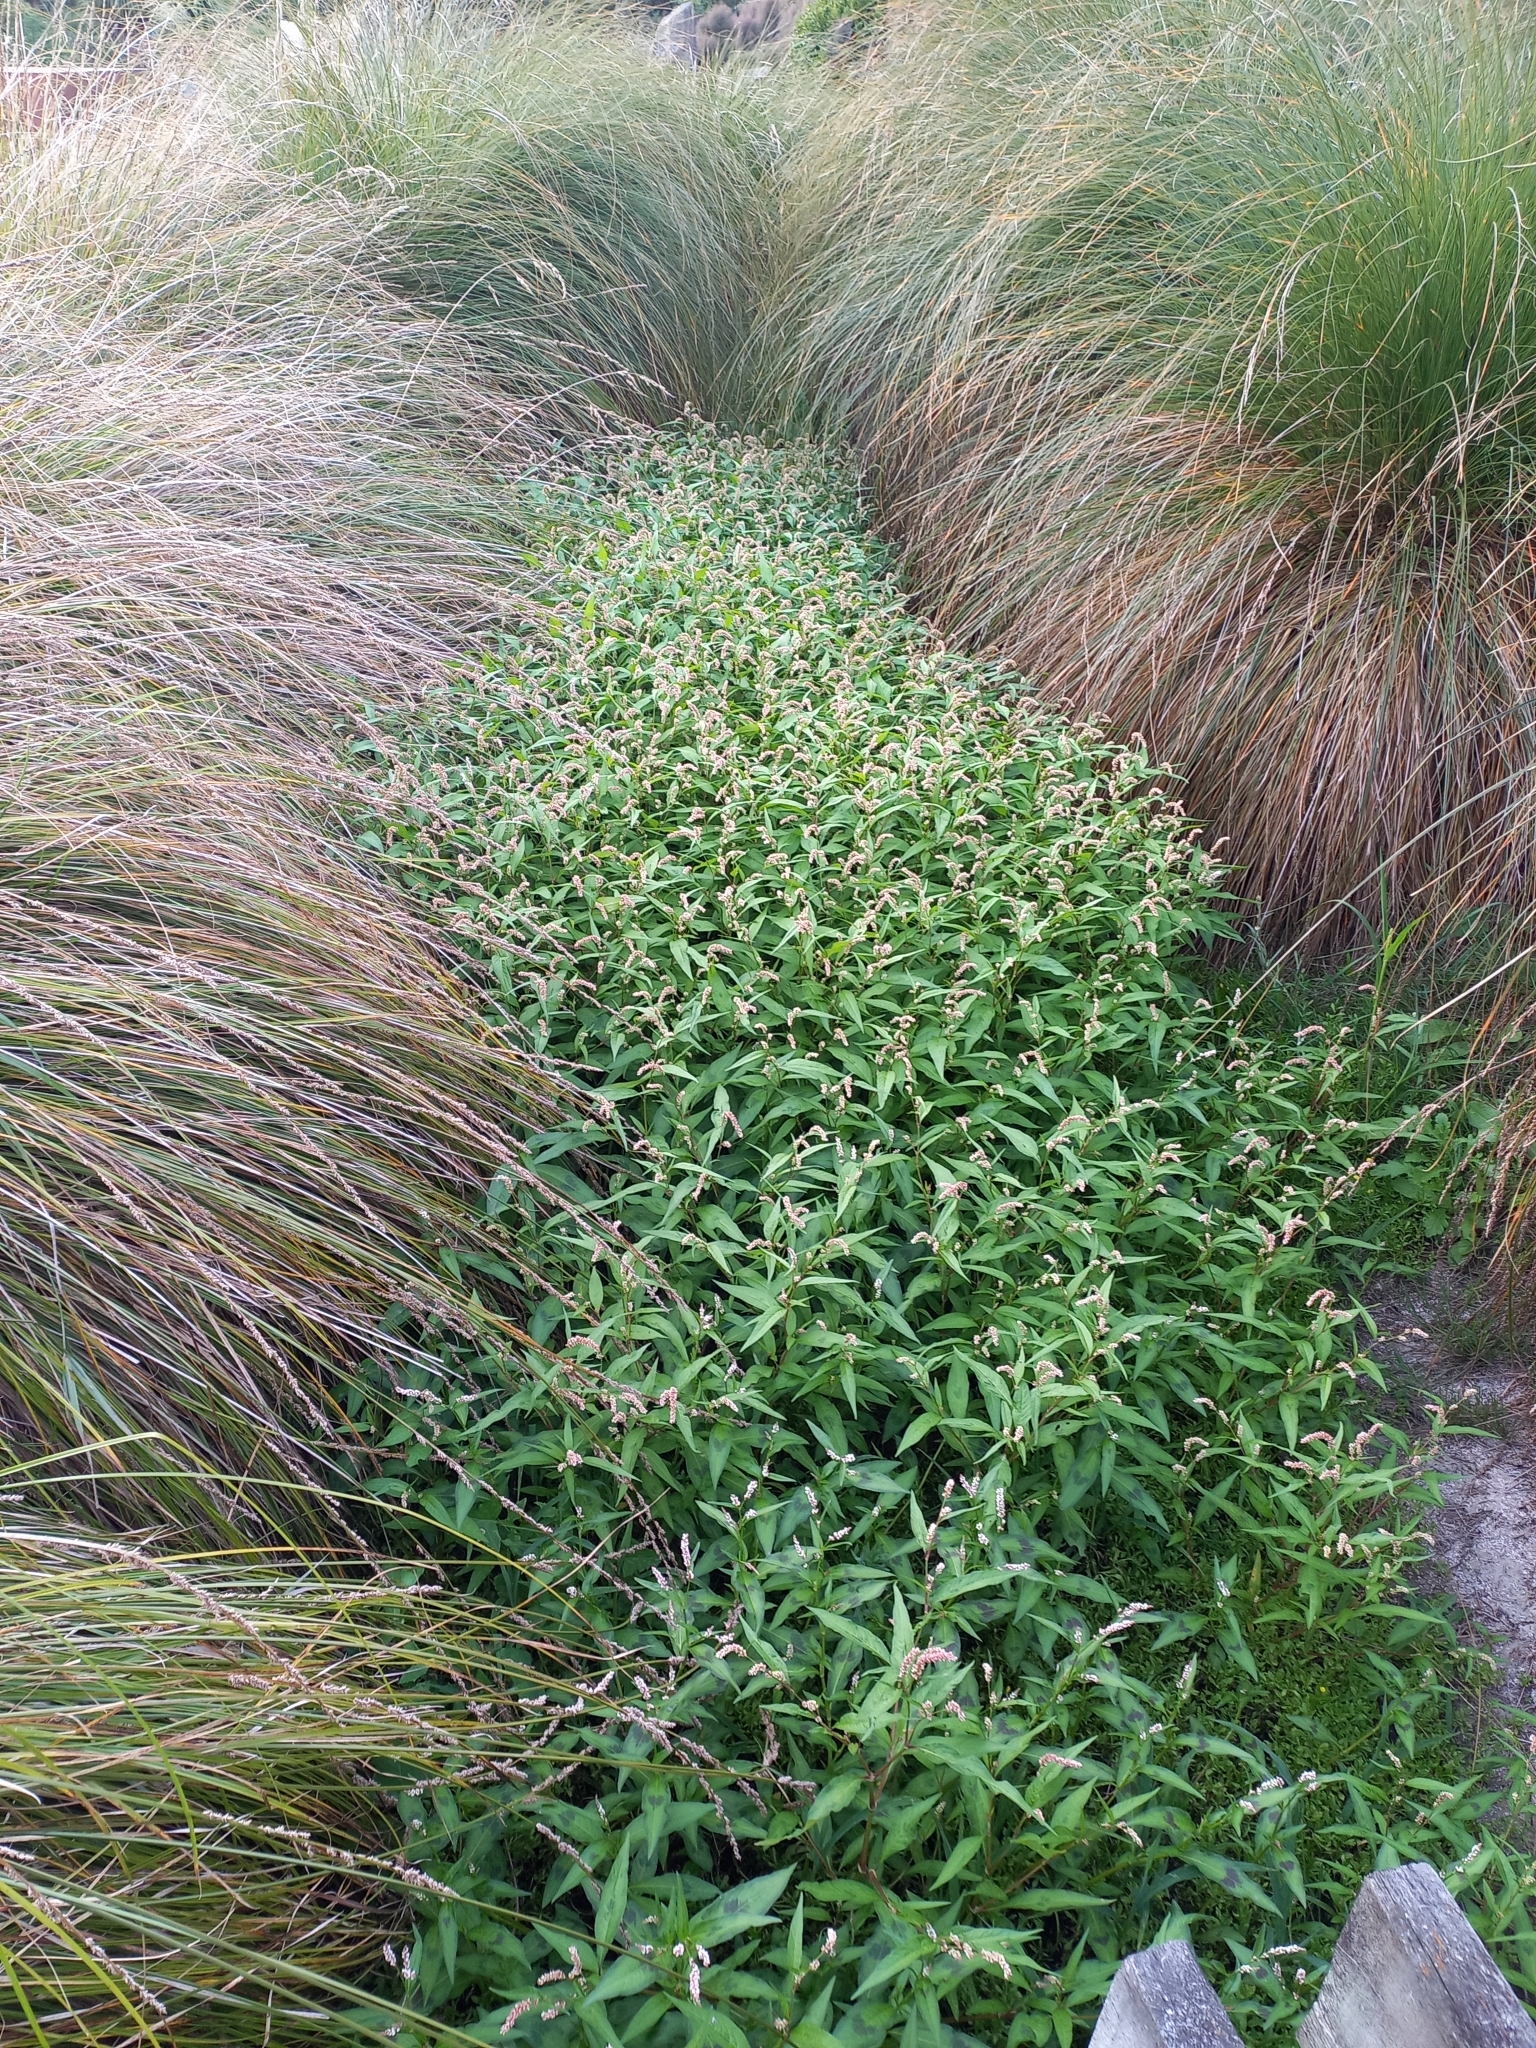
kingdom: Plantae
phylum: Tracheophyta
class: Magnoliopsida
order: Caryophyllales
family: Polygonaceae
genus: Persicaria
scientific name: Persicaria maculosa
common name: Redshank
